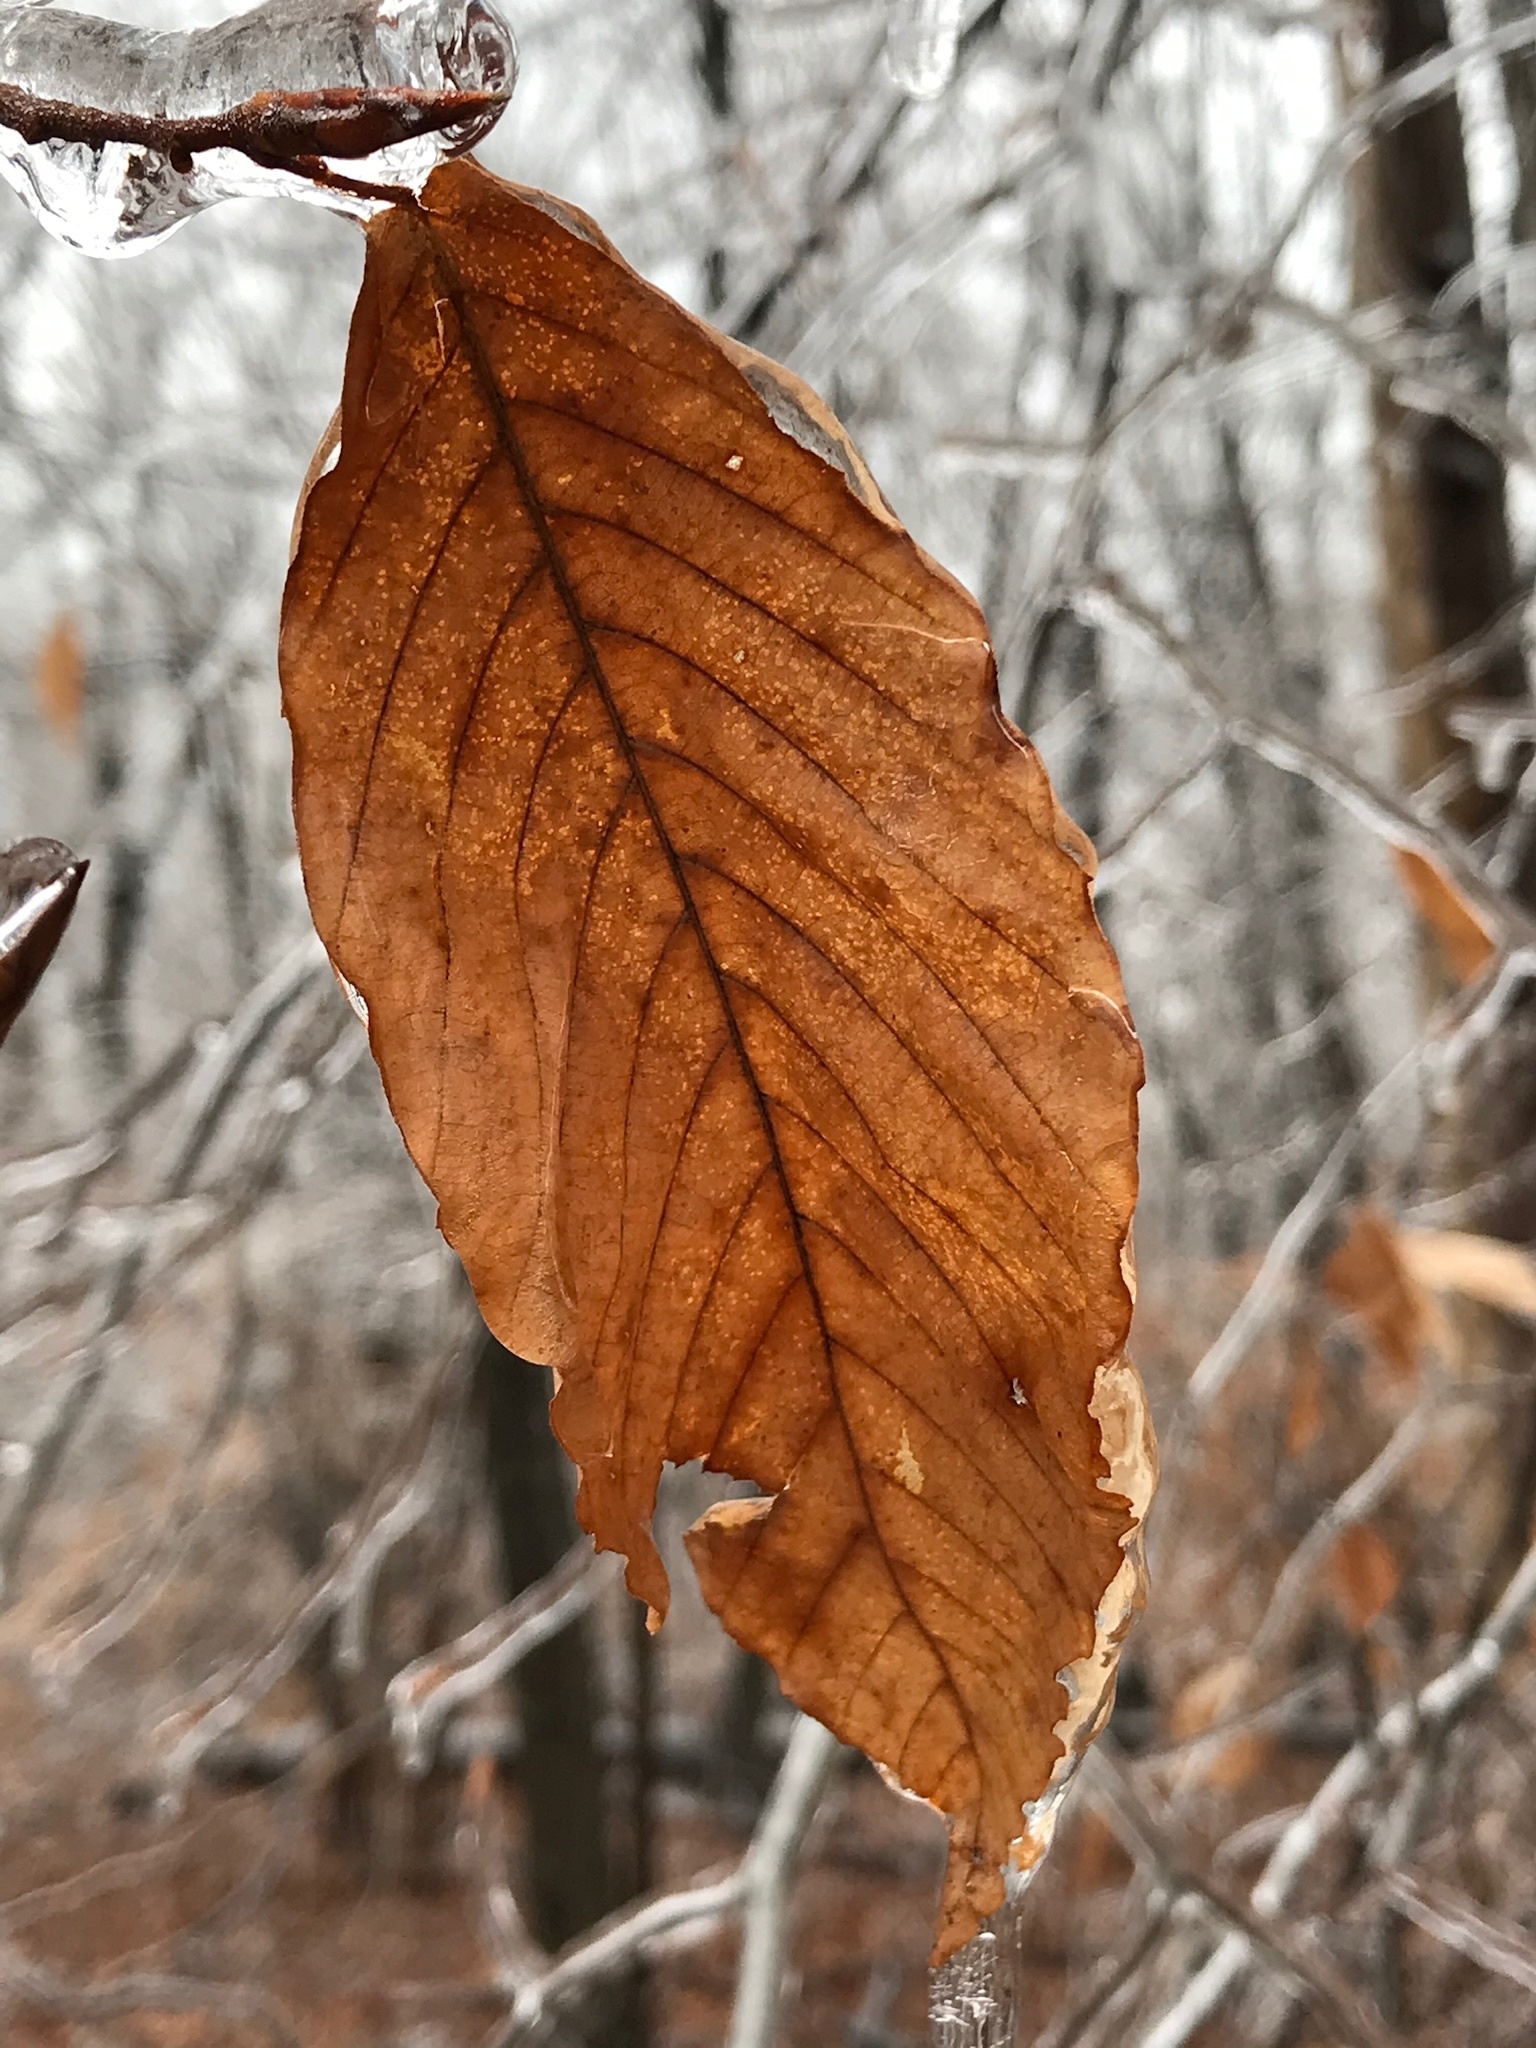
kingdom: Plantae
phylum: Tracheophyta
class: Magnoliopsida
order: Fagales
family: Fagaceae
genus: Fagus
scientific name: Fagus grandifolia
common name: American beech
